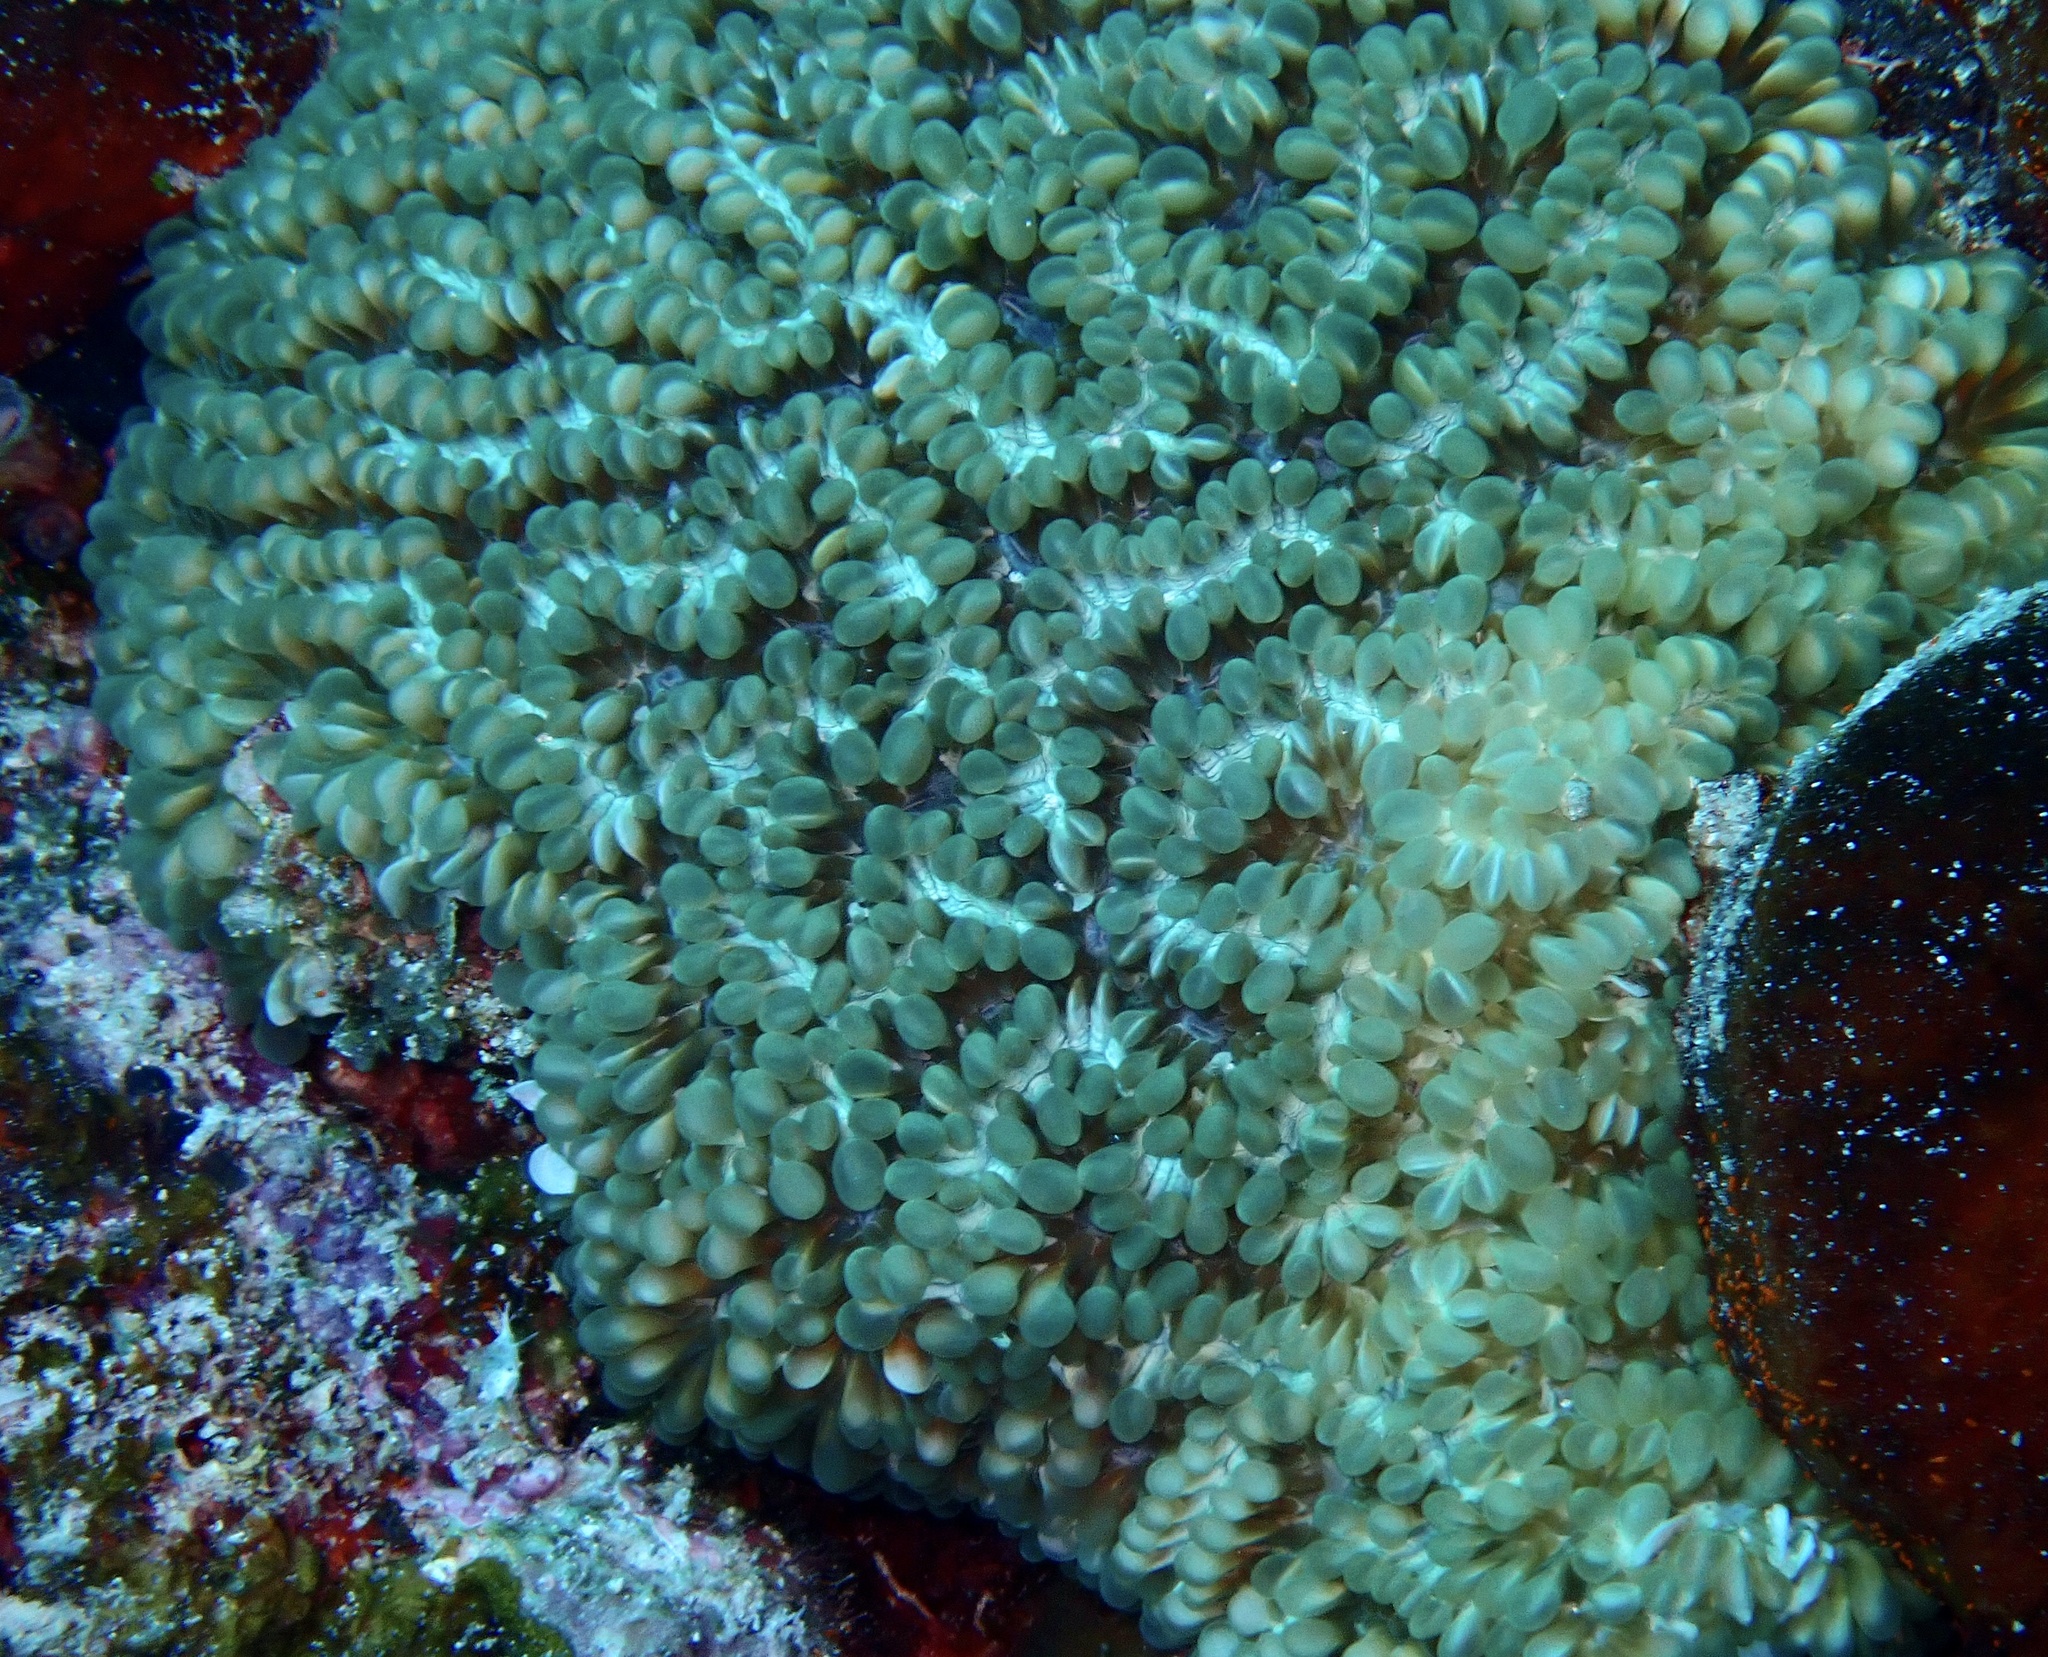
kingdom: Animalia
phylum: Cnidaria
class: Anthozoa
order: Scleractinia
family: Plerogyridae
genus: Physogyra
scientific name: Physogyra lichtensteini
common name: Tipped bubblegum coral
